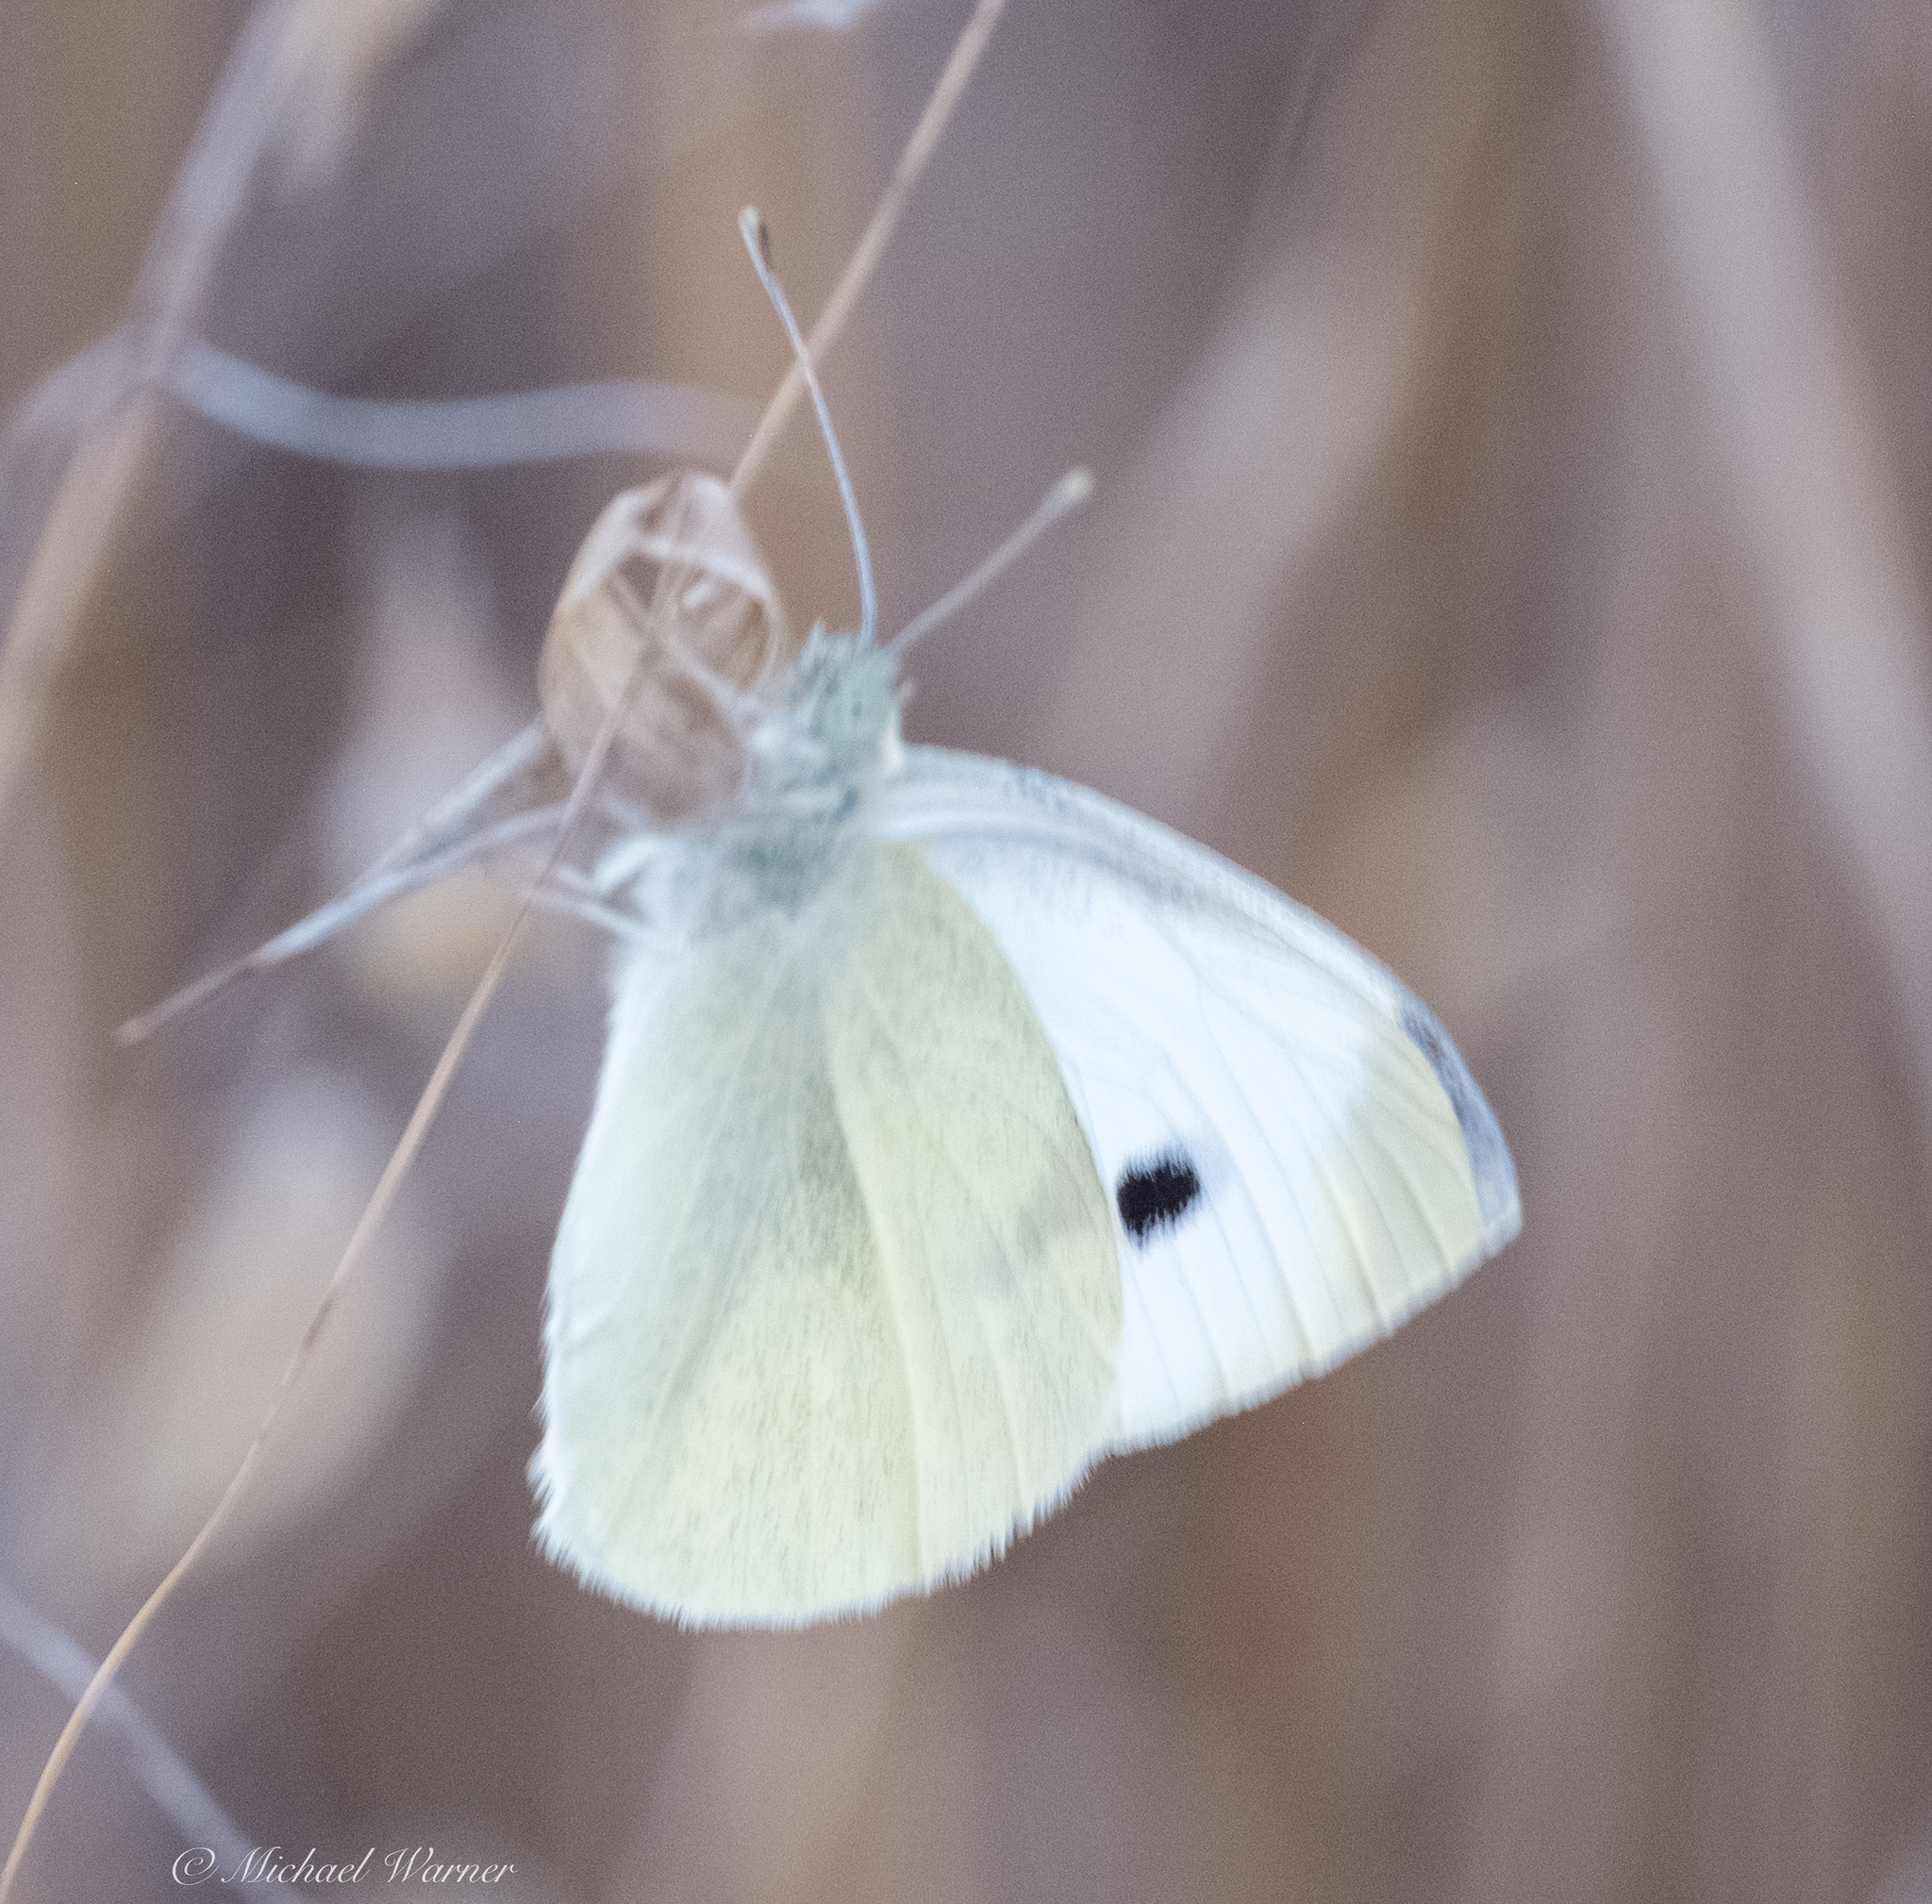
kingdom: Animalia
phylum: Arthropoda
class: Insecta
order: Lepidoptera
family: Pieridae
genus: Pieris
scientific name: Pieris rapae
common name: Small white
